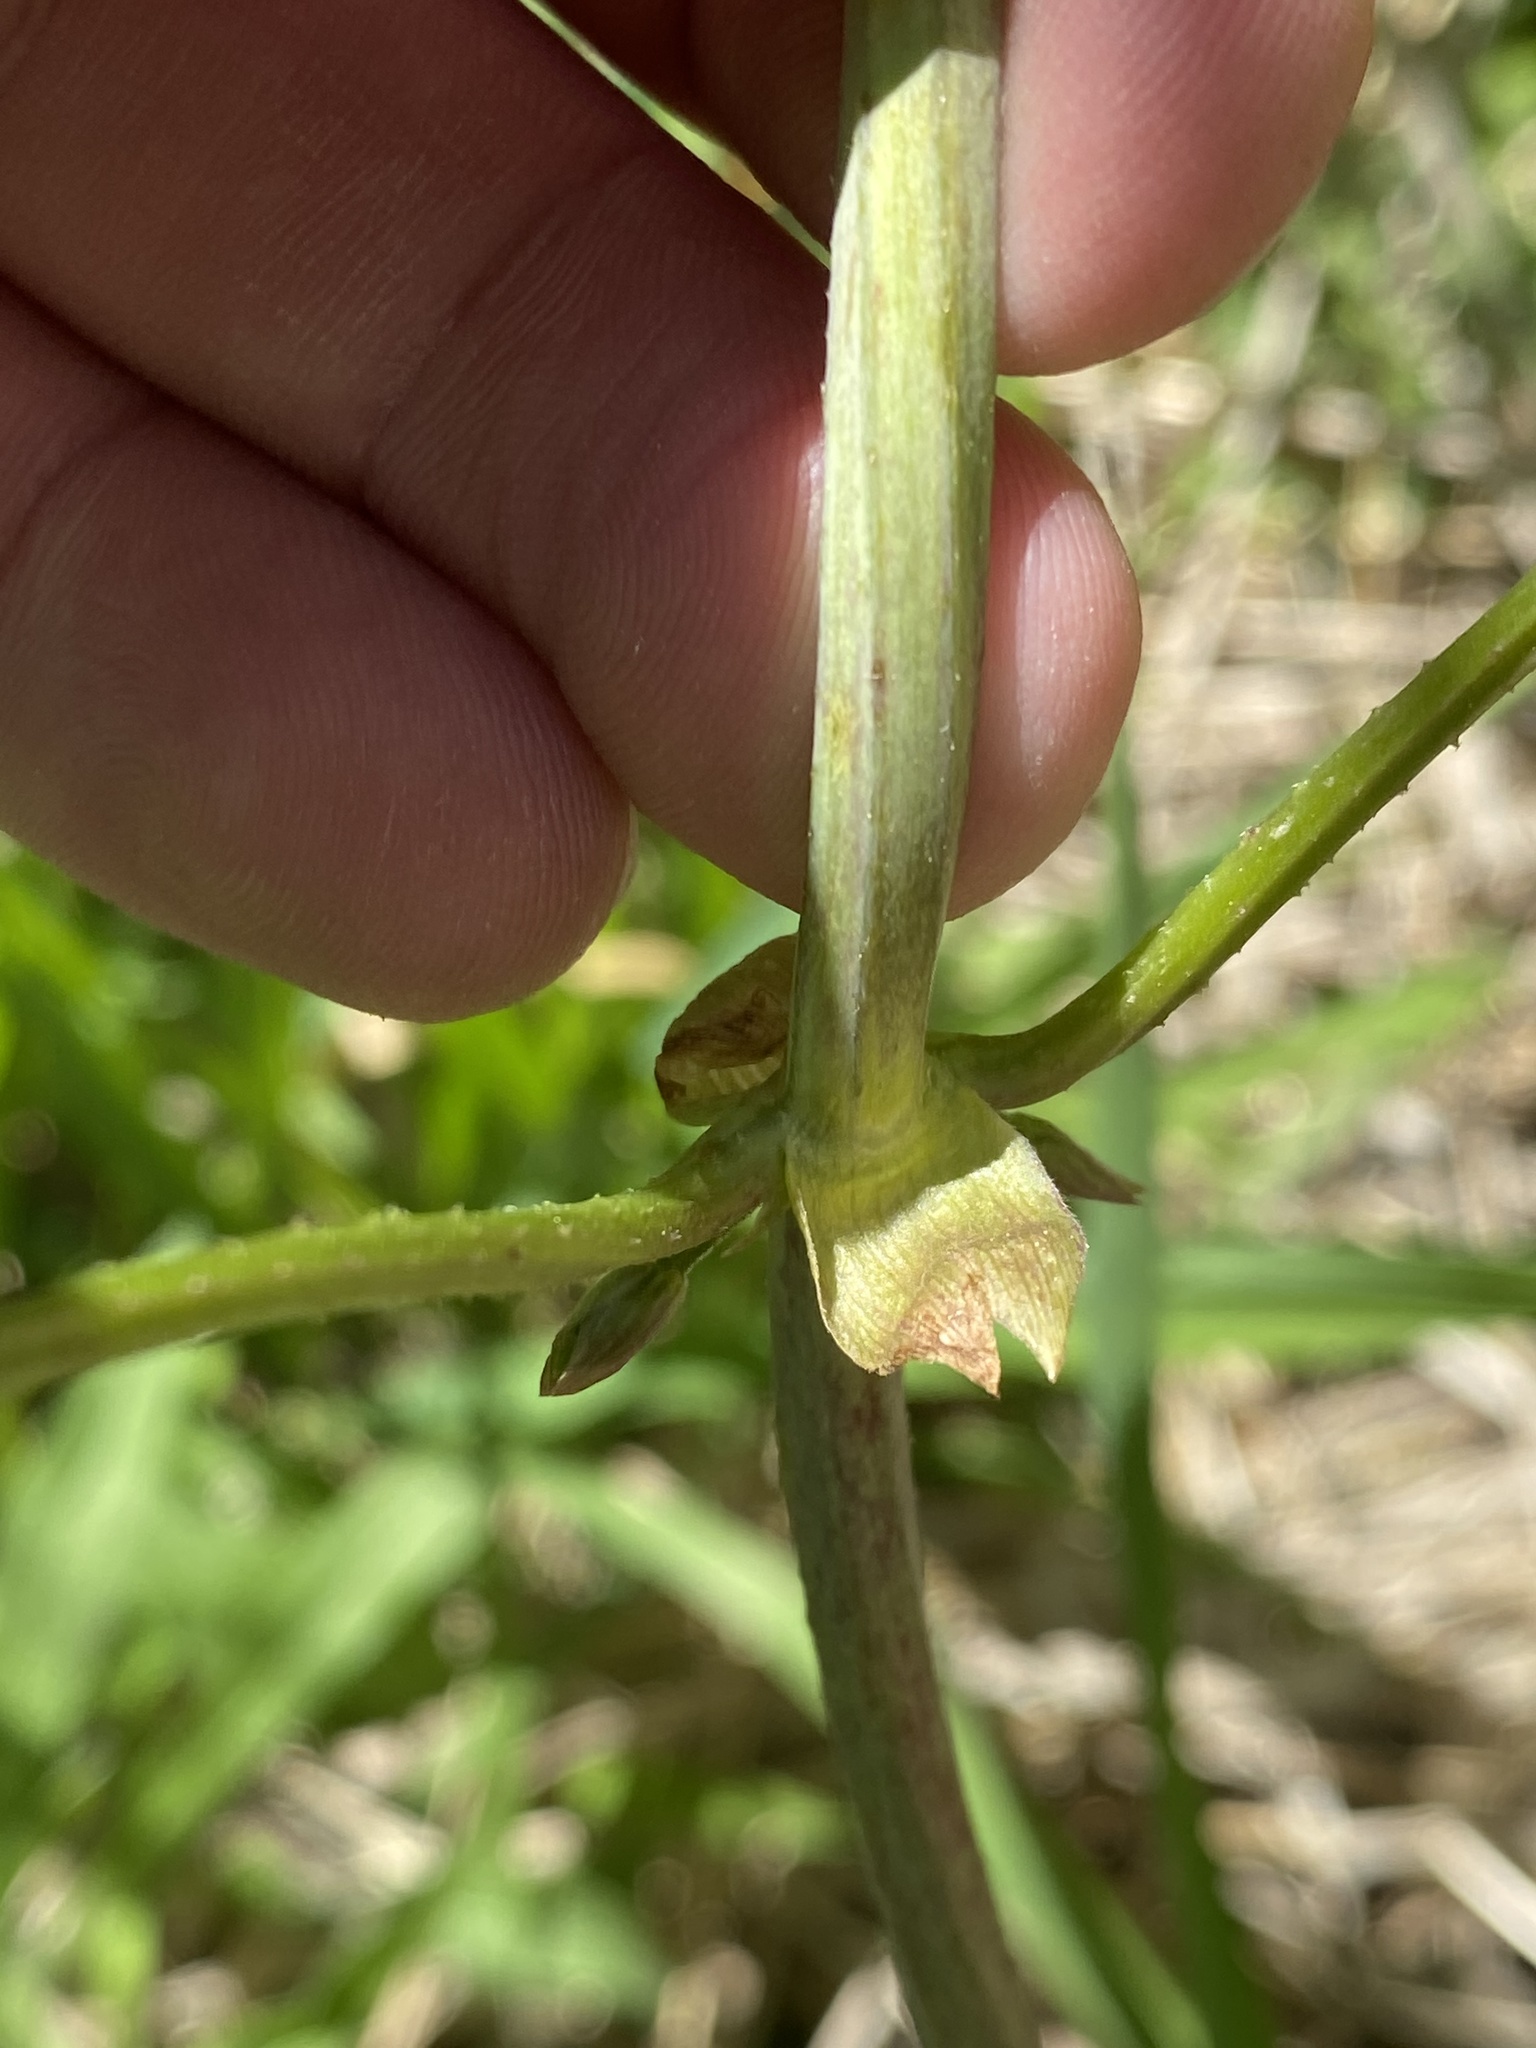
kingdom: Plantae
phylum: Tracheophyta
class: Magnoliopsida
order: Rosales
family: Cannabaceae
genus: Humulus
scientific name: Humulus lupulus
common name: Hop
